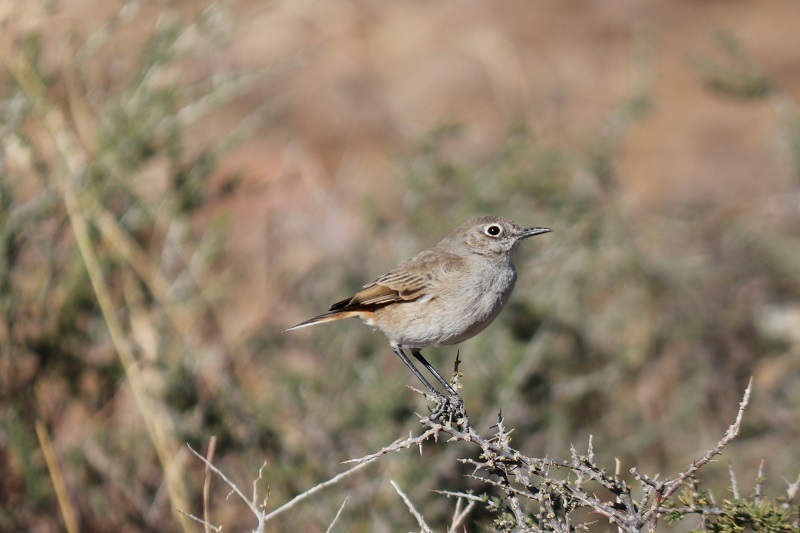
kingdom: Animalia
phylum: Chordata
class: Aves
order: Passeriformes
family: Muscicapidae
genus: Emarginata
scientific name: Emarginata sinuata
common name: Sickle-winged chat
